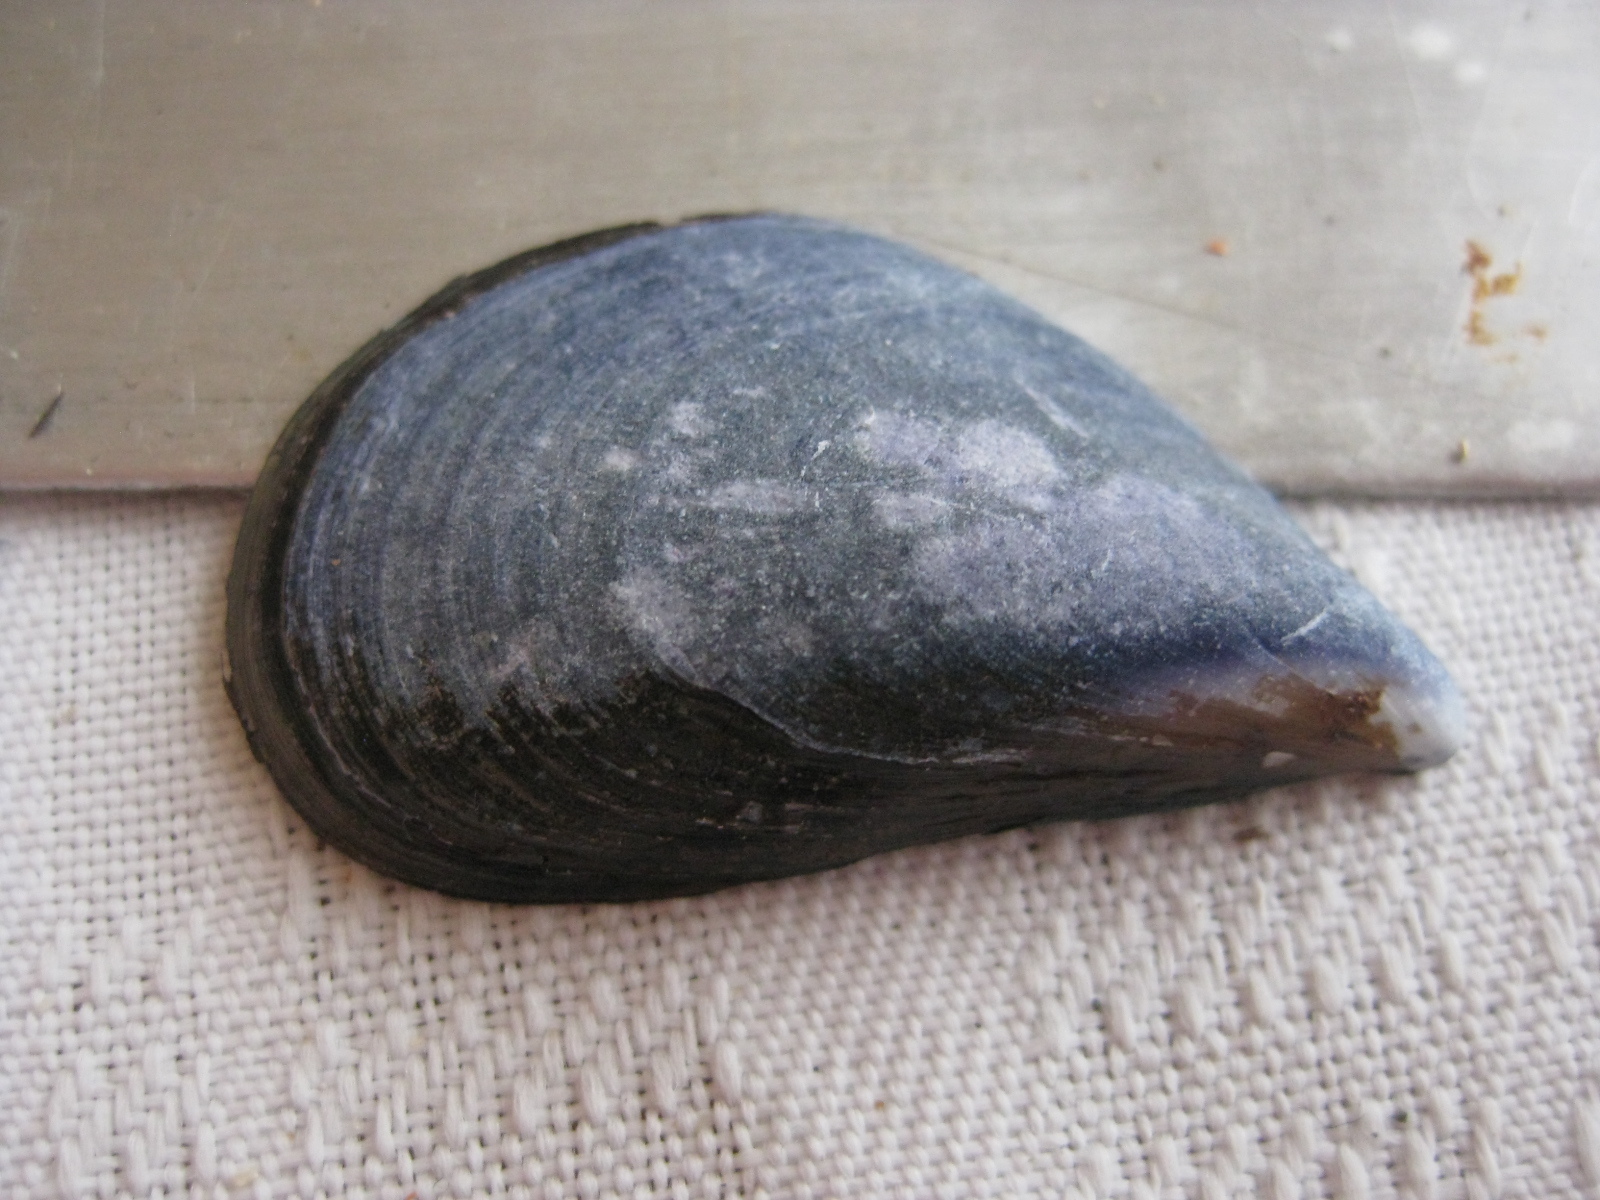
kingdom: Animalia
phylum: Mollusca
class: Bivalvia
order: Mytilida
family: Mytilidae
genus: Mytilus
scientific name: Mytilus planulatus
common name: Australian mussel
